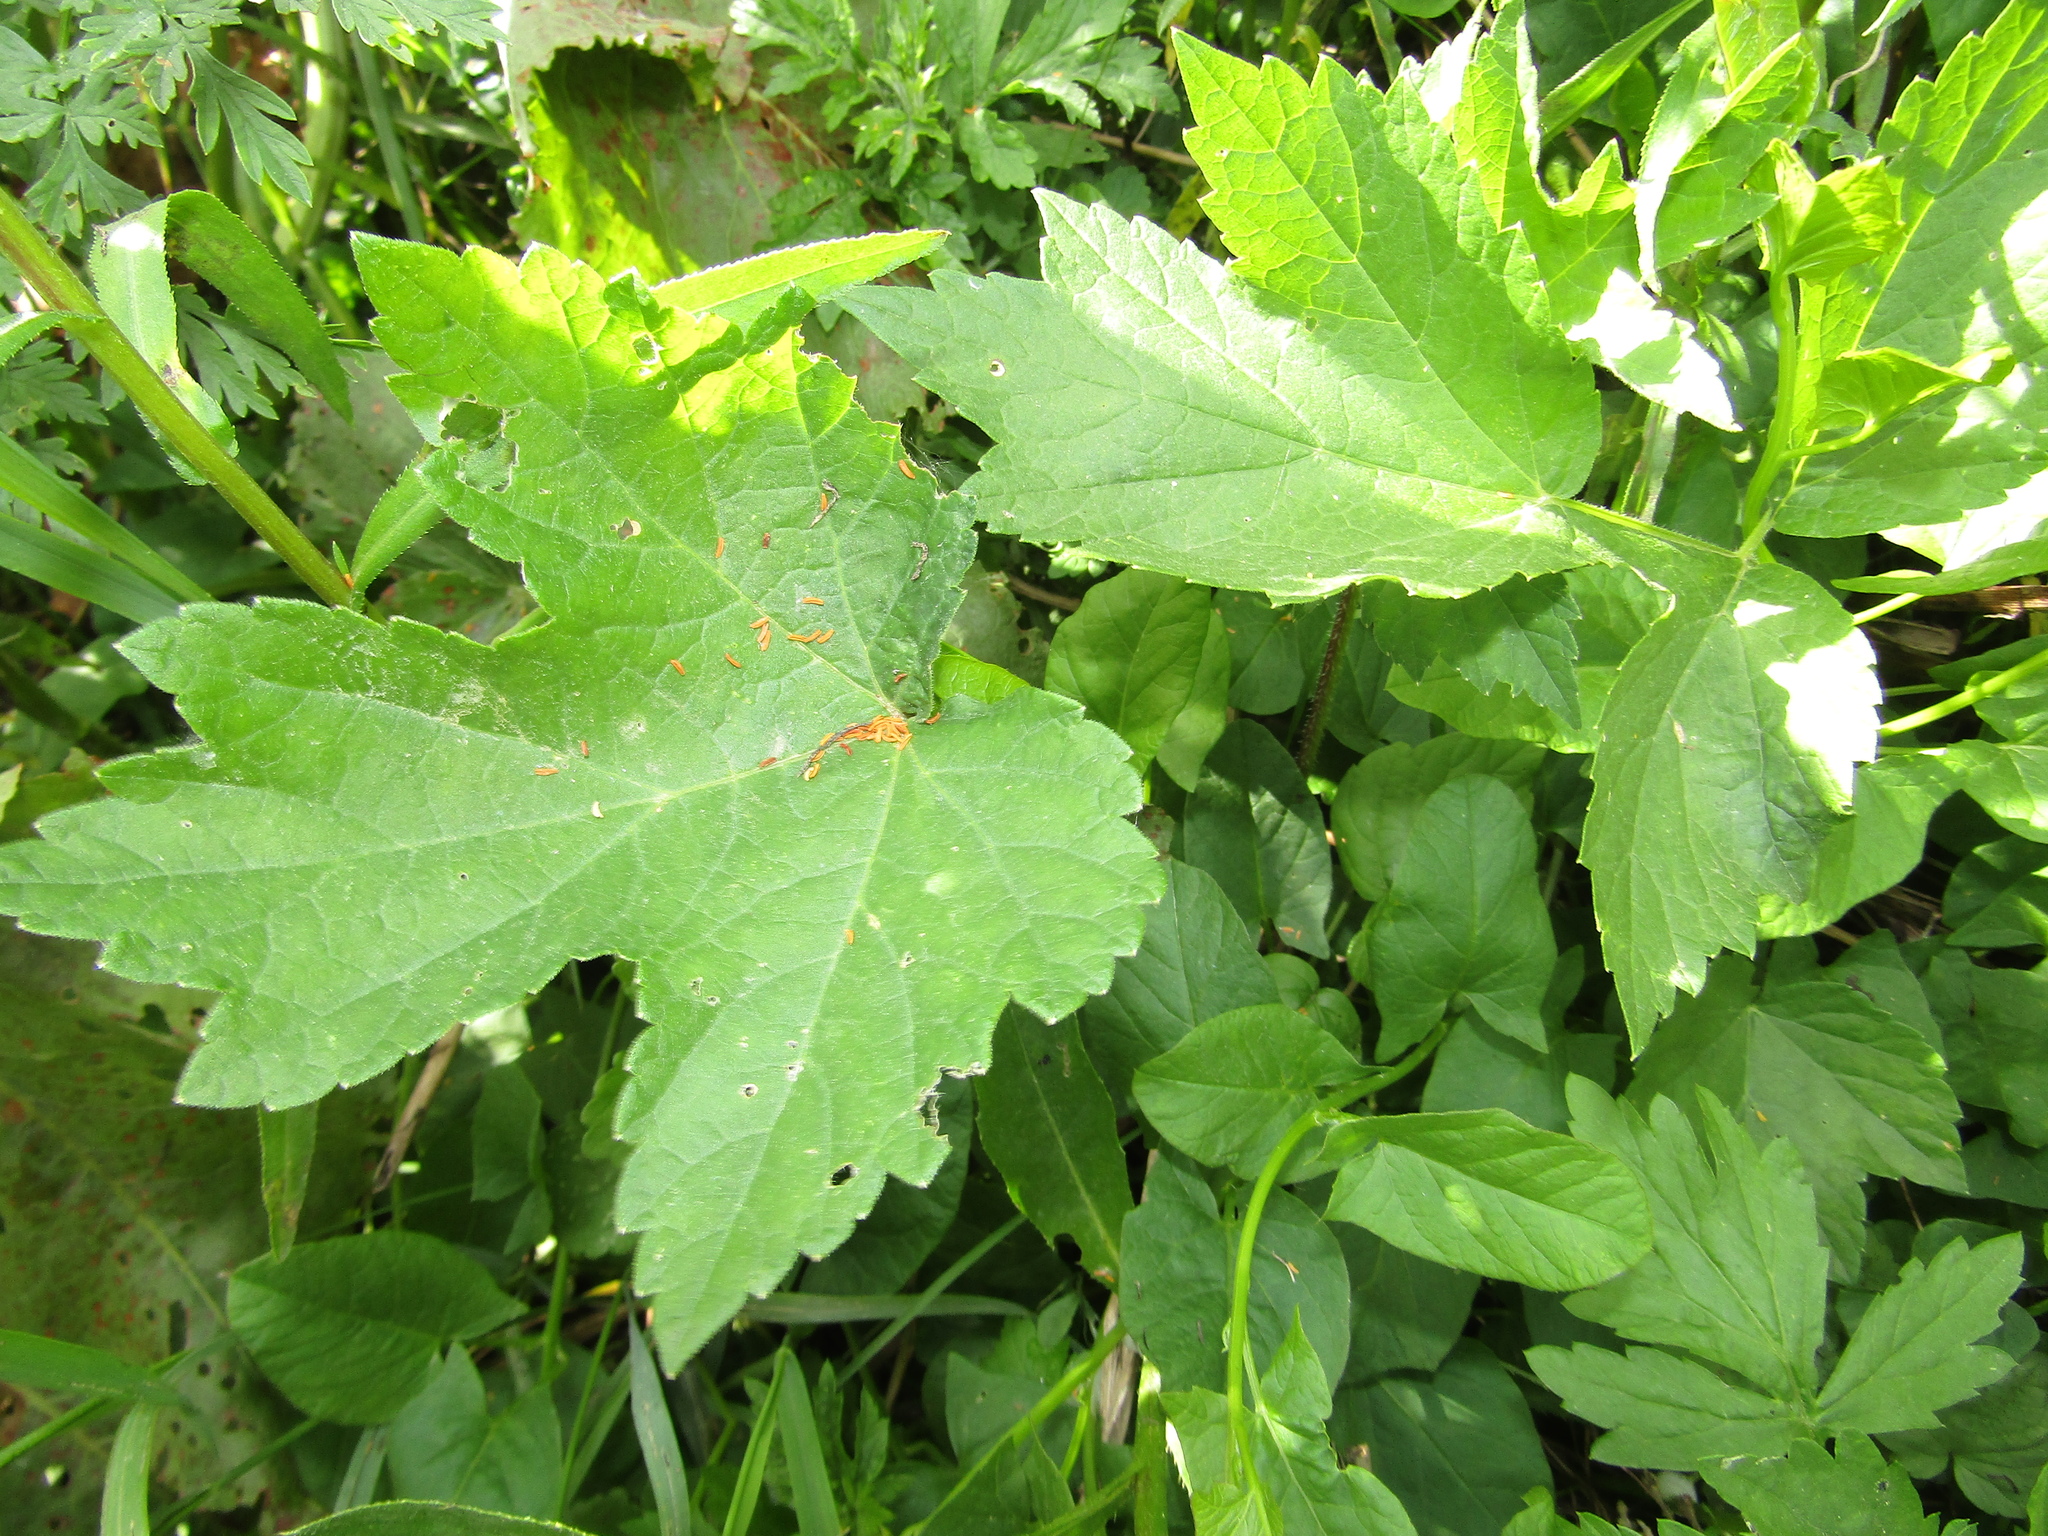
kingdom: Plantae
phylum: Tracheophyta
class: Magnoliopsida
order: Apiales
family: Apiaceae
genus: Heracleum
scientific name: Heracleum sphondylium
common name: Hogweed
